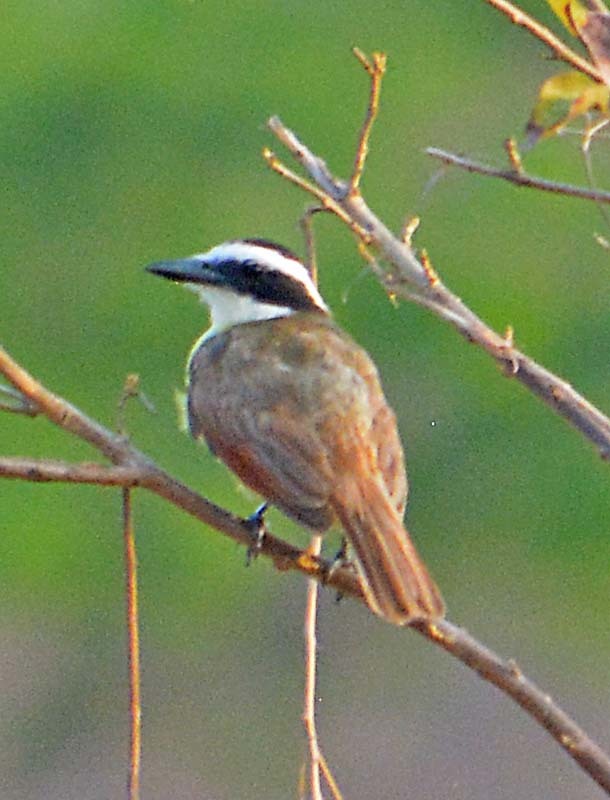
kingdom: Animalia
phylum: Chordata
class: Aves
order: Passeriformes
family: Tyrannidae
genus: Pitangus
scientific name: Pitangus sulphuratus
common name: Great kiskadee
